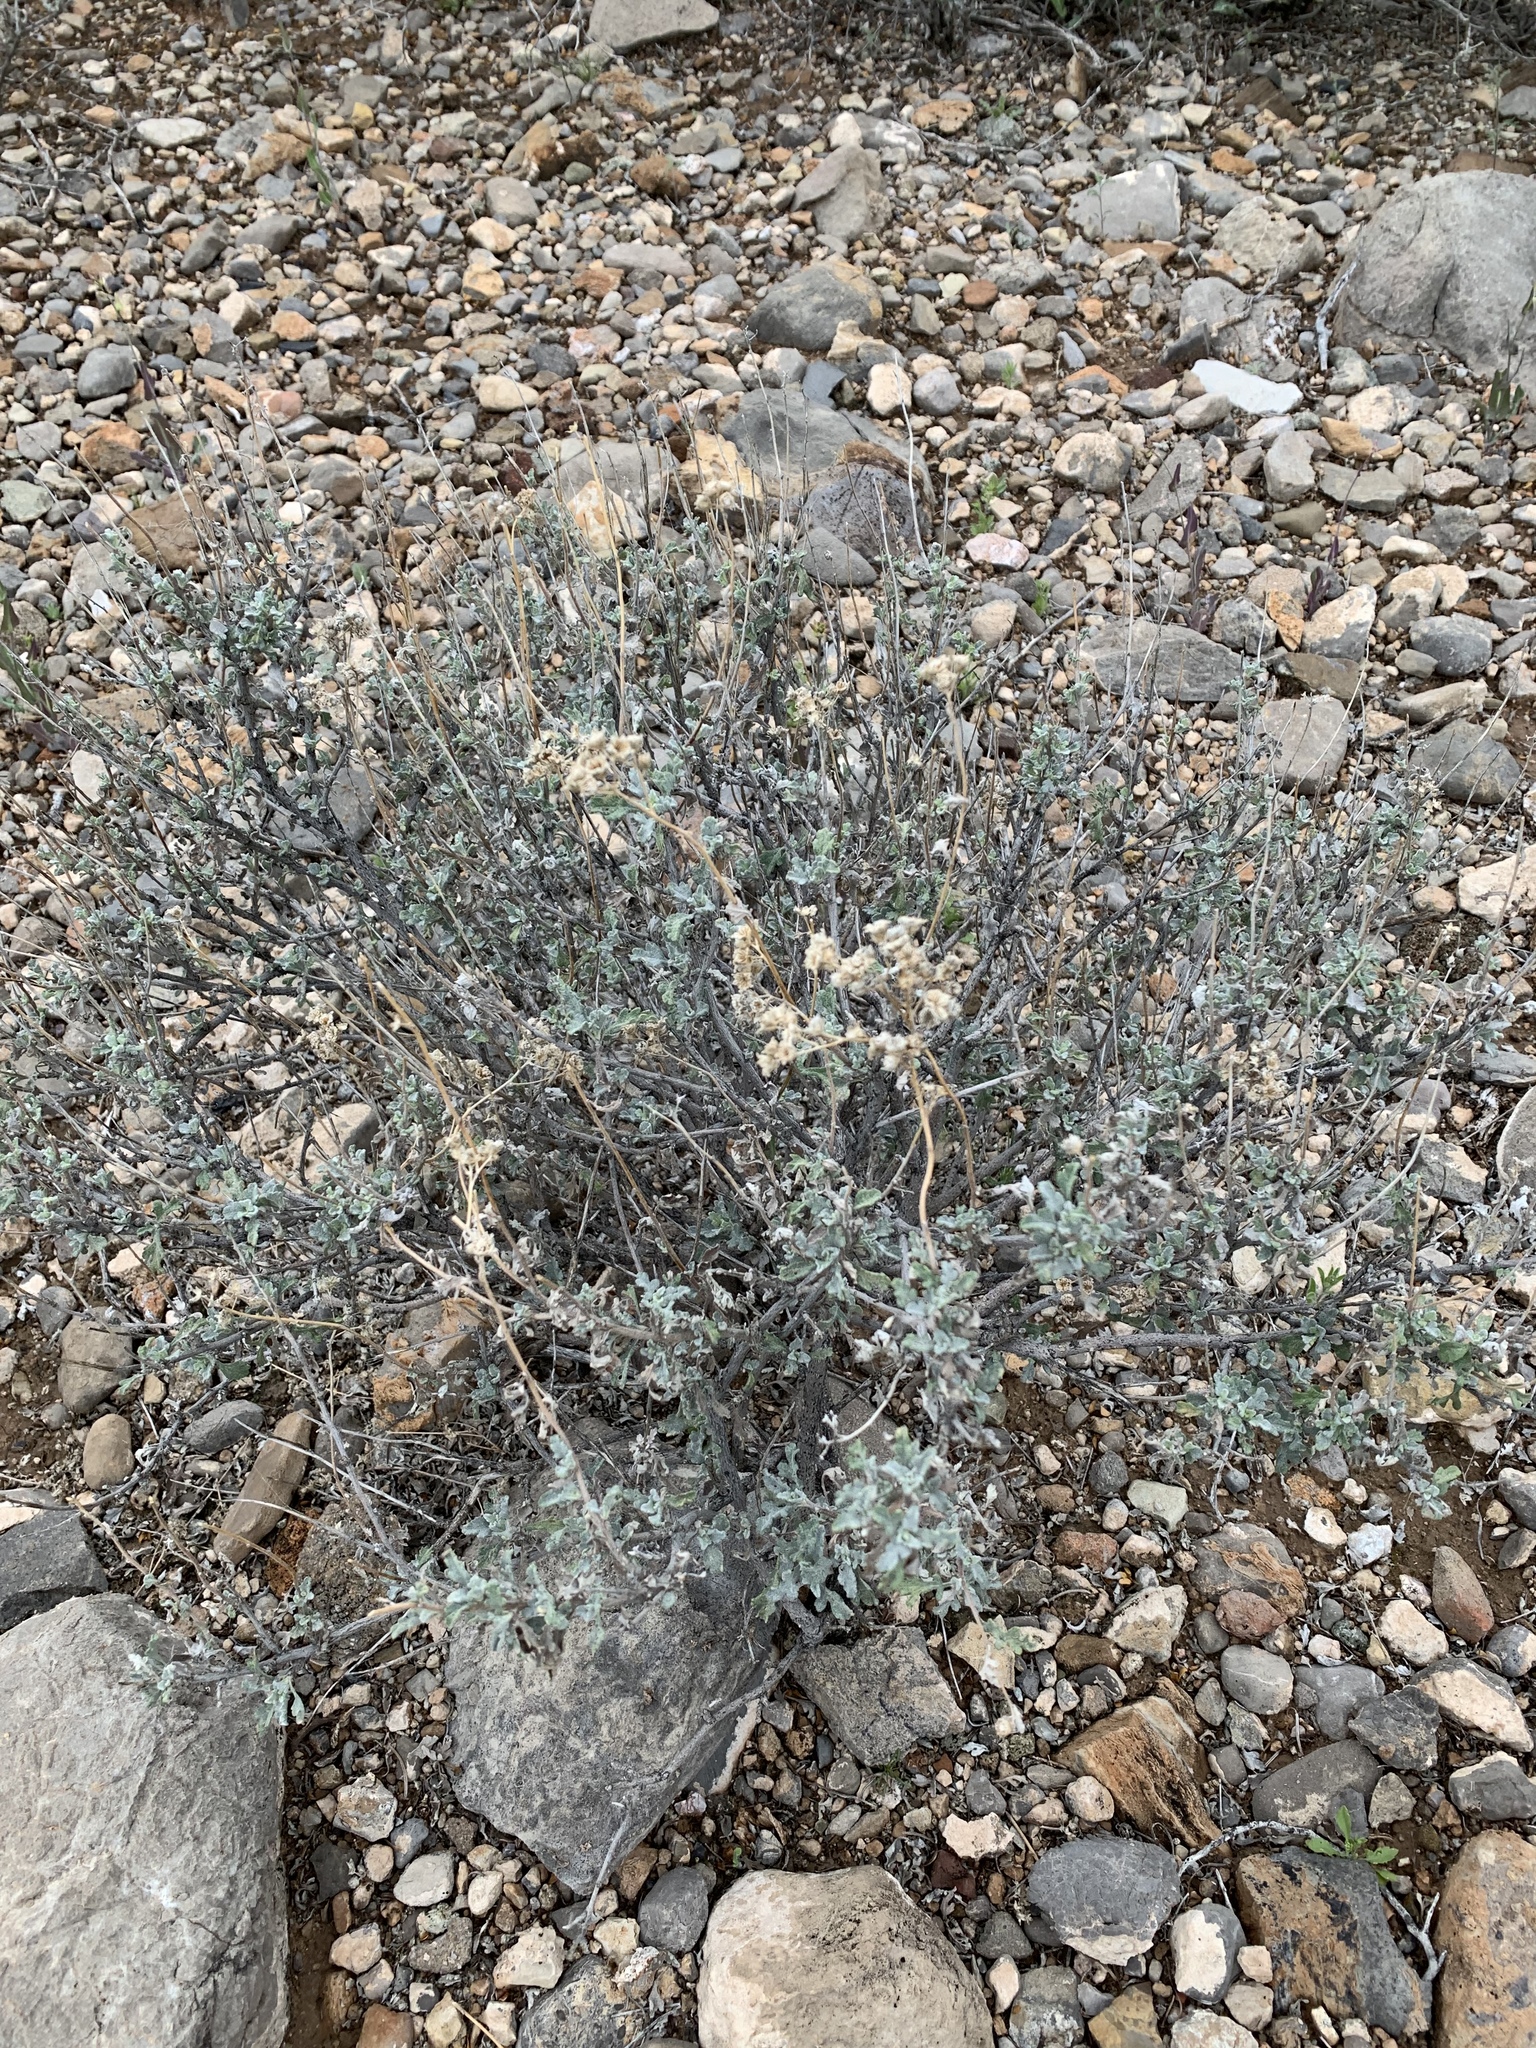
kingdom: Plantae
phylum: Tracheophyta
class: Magnoliopsida
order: Asterales
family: Asteraceae
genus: Parthenium
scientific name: Parthenium incanum
